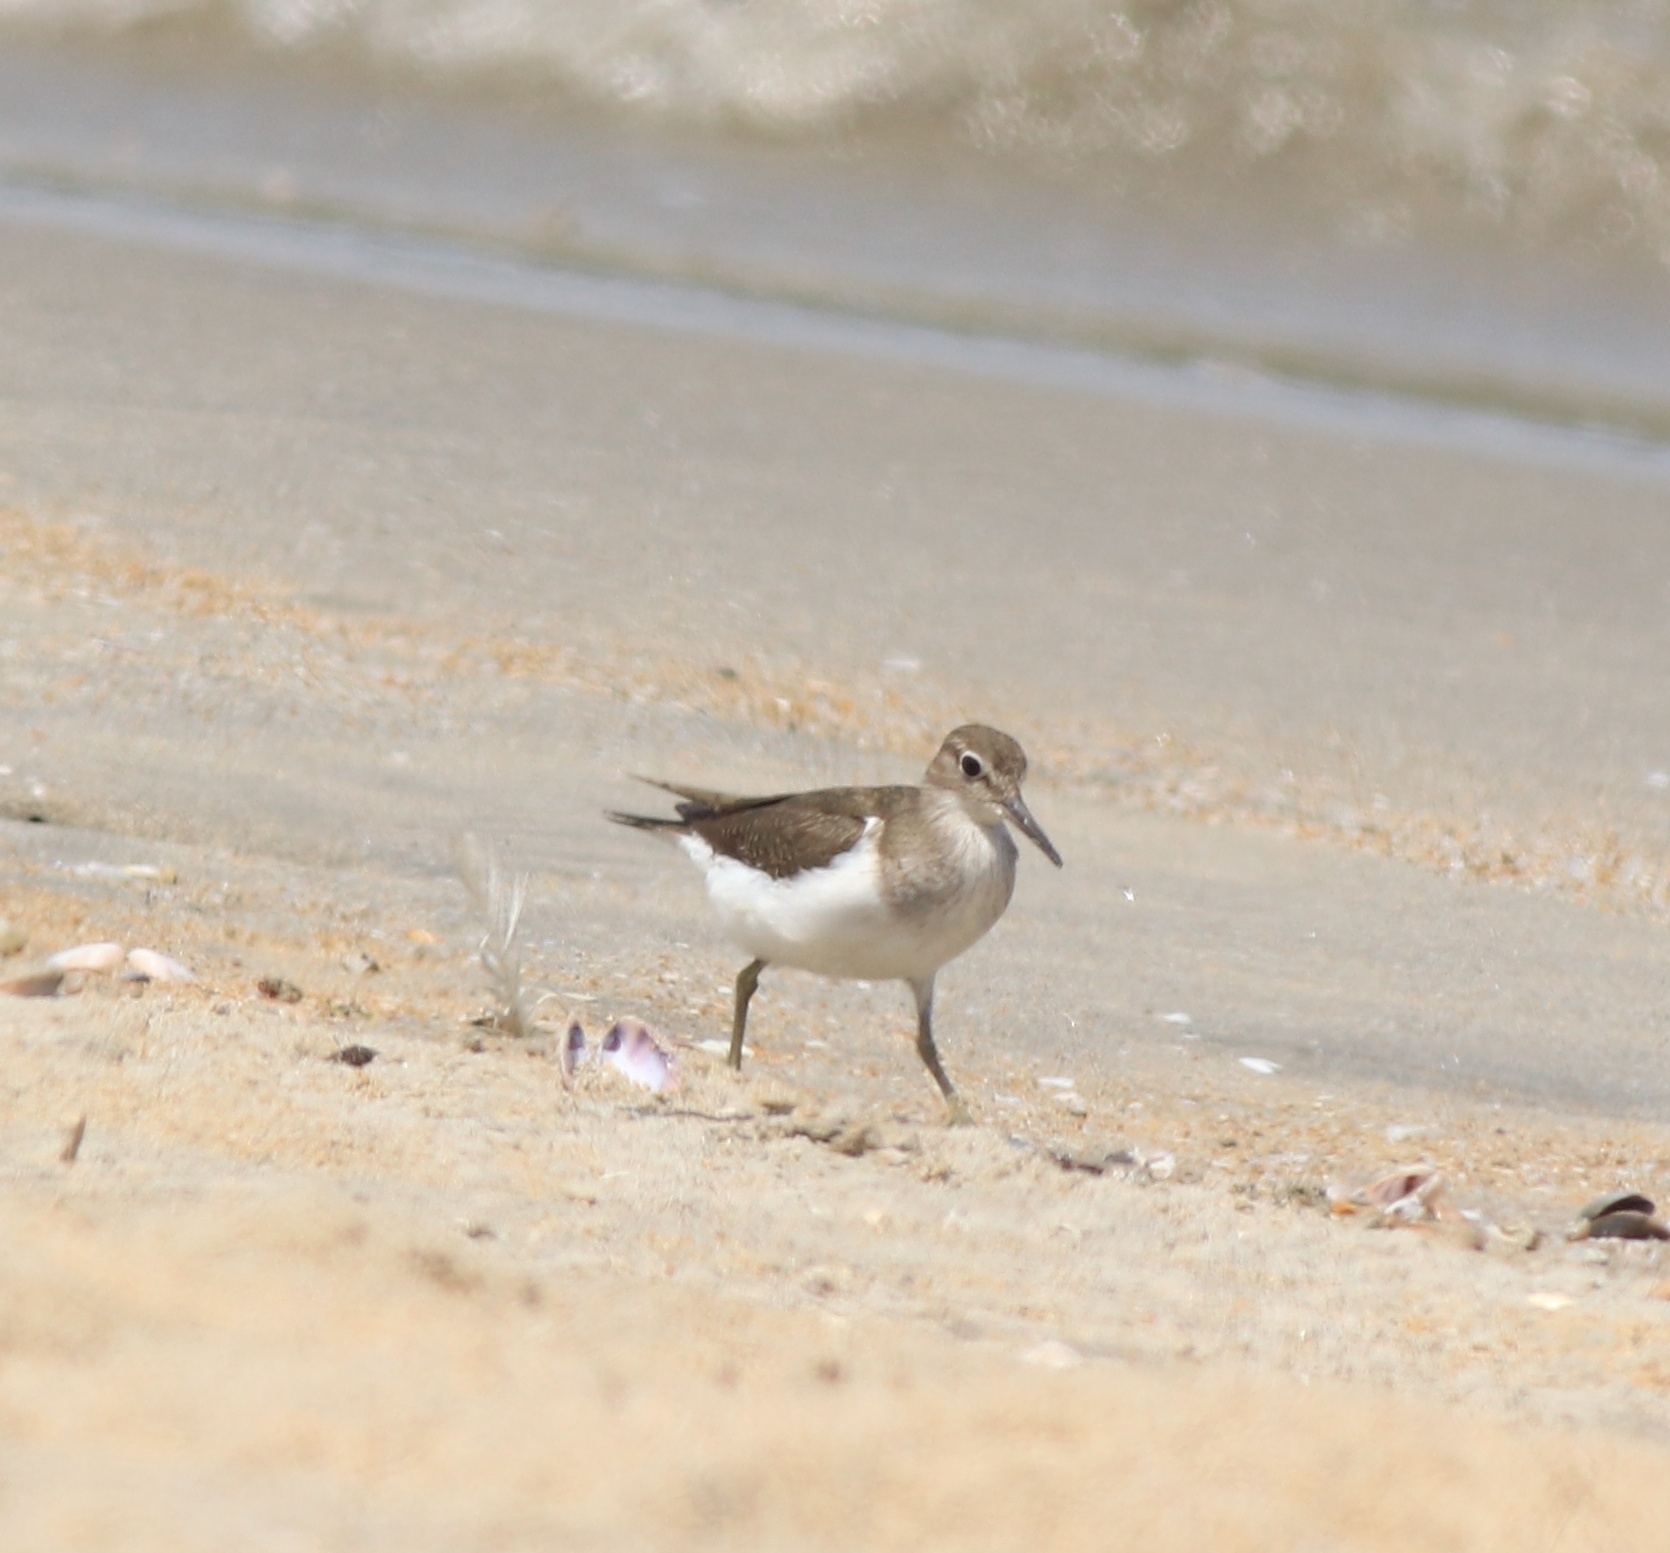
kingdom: Animalia
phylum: Chordata
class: Aves
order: Charadriiformes
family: Scolopacidae
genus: Actitis
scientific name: Actitis hypoleucos
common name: Common sandpiper
